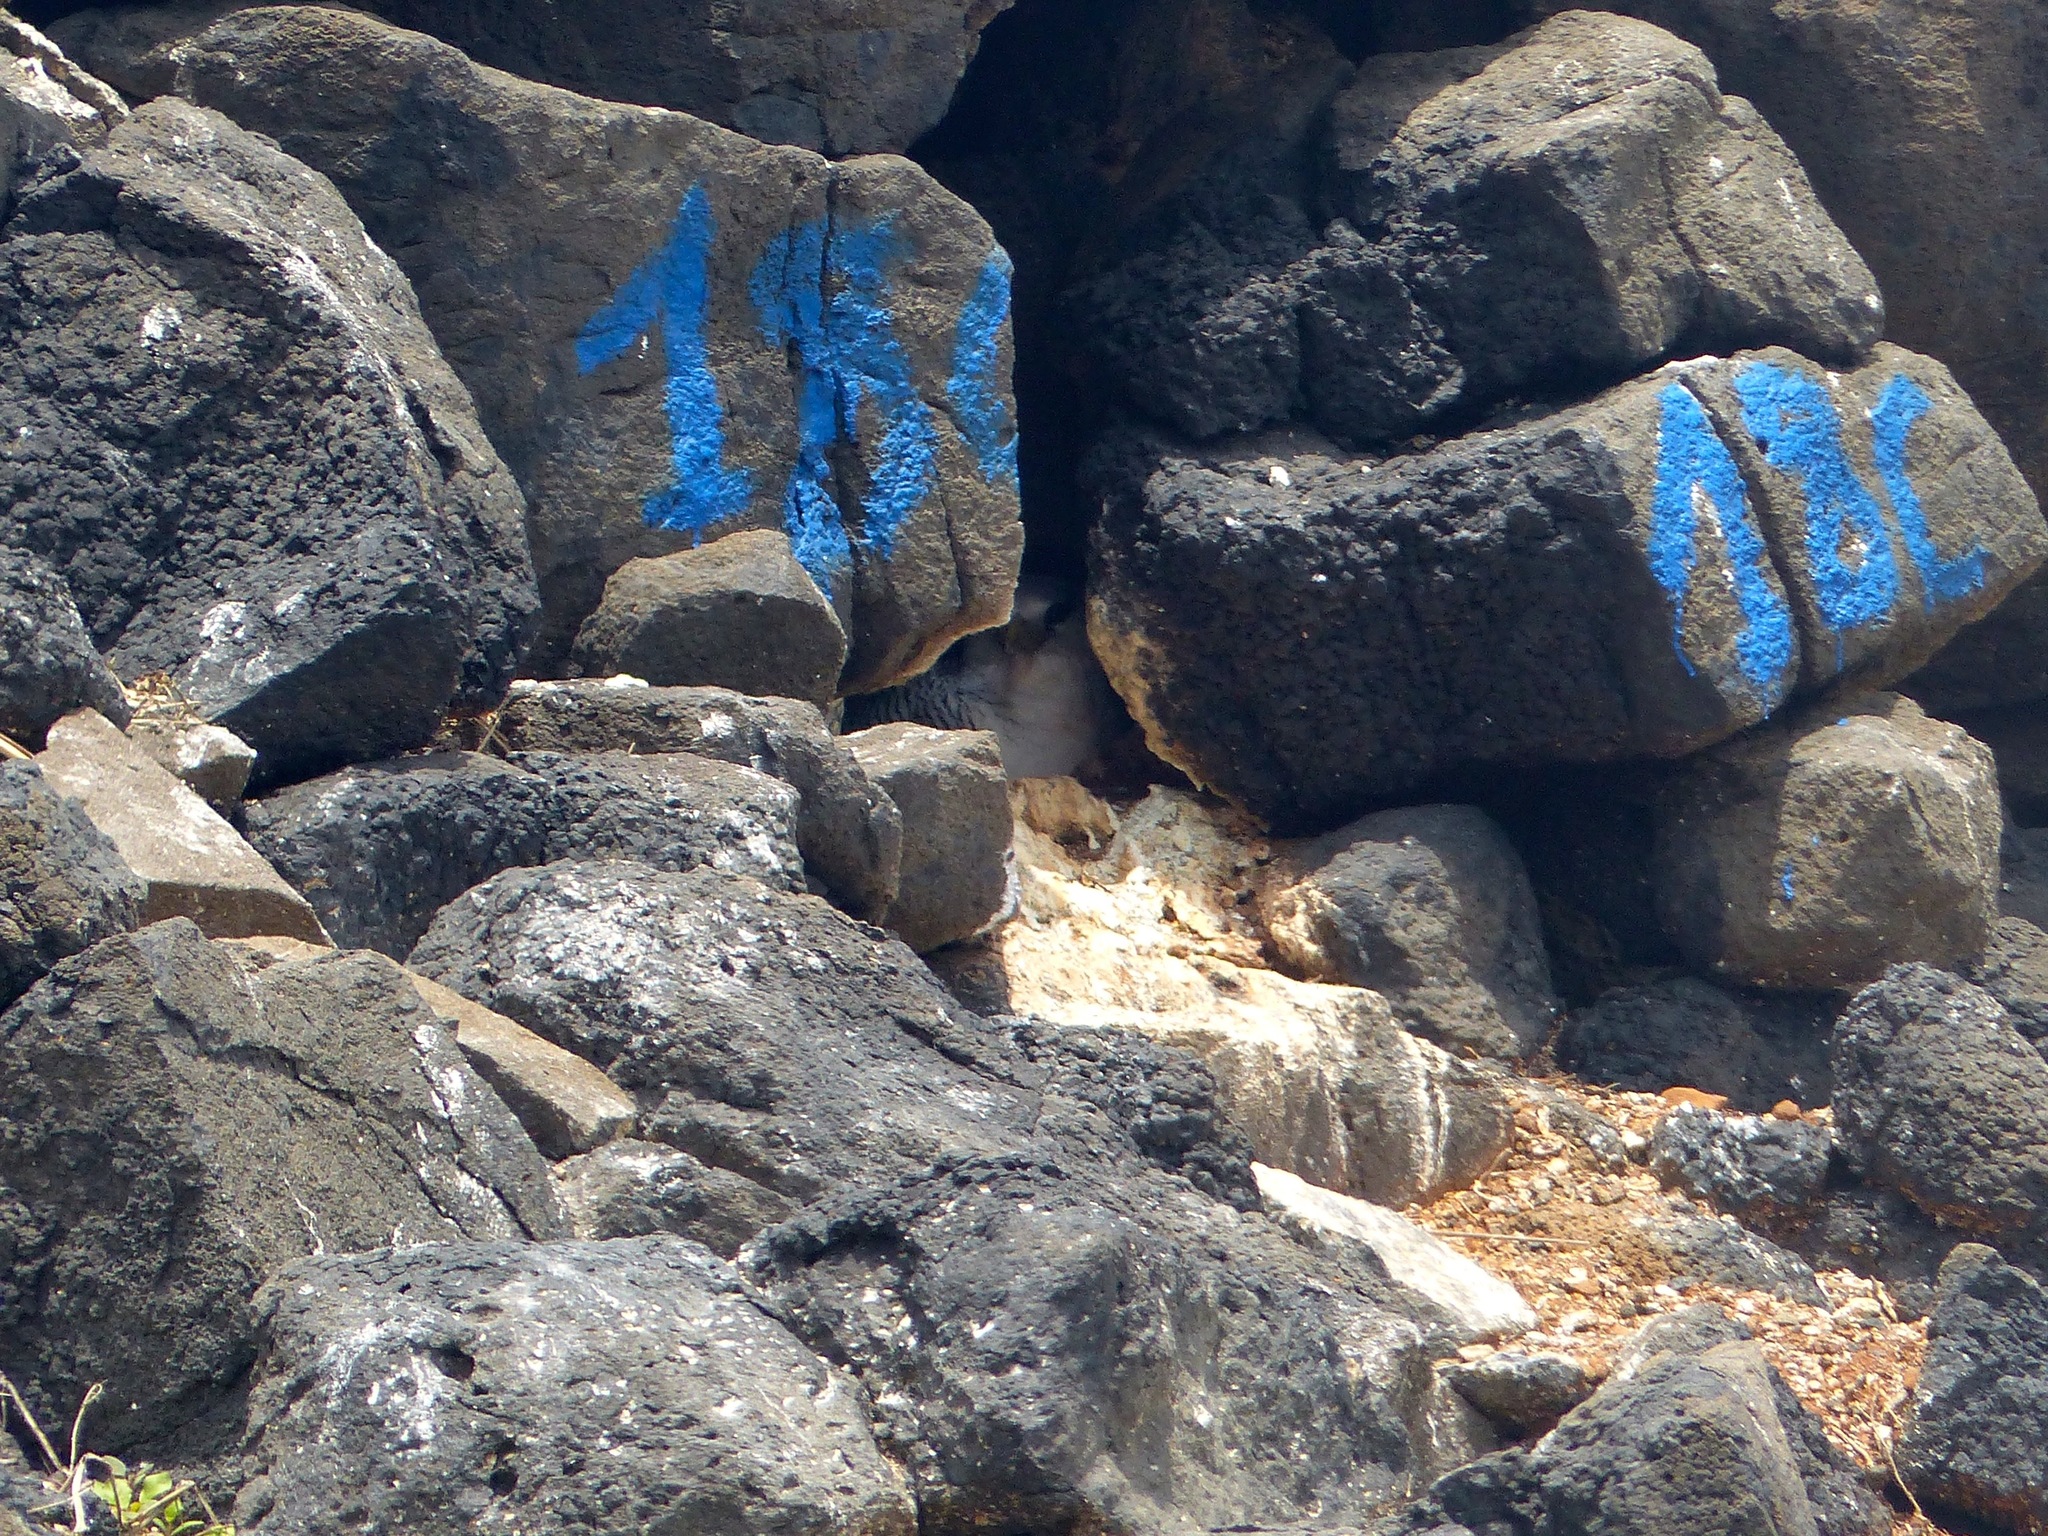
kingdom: Animalia
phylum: Chordata
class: Aves
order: Phaethontiformes
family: Phaethontidae
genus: Phaethon
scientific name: Phaethon aethereus
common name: Red-billed tropicbird
